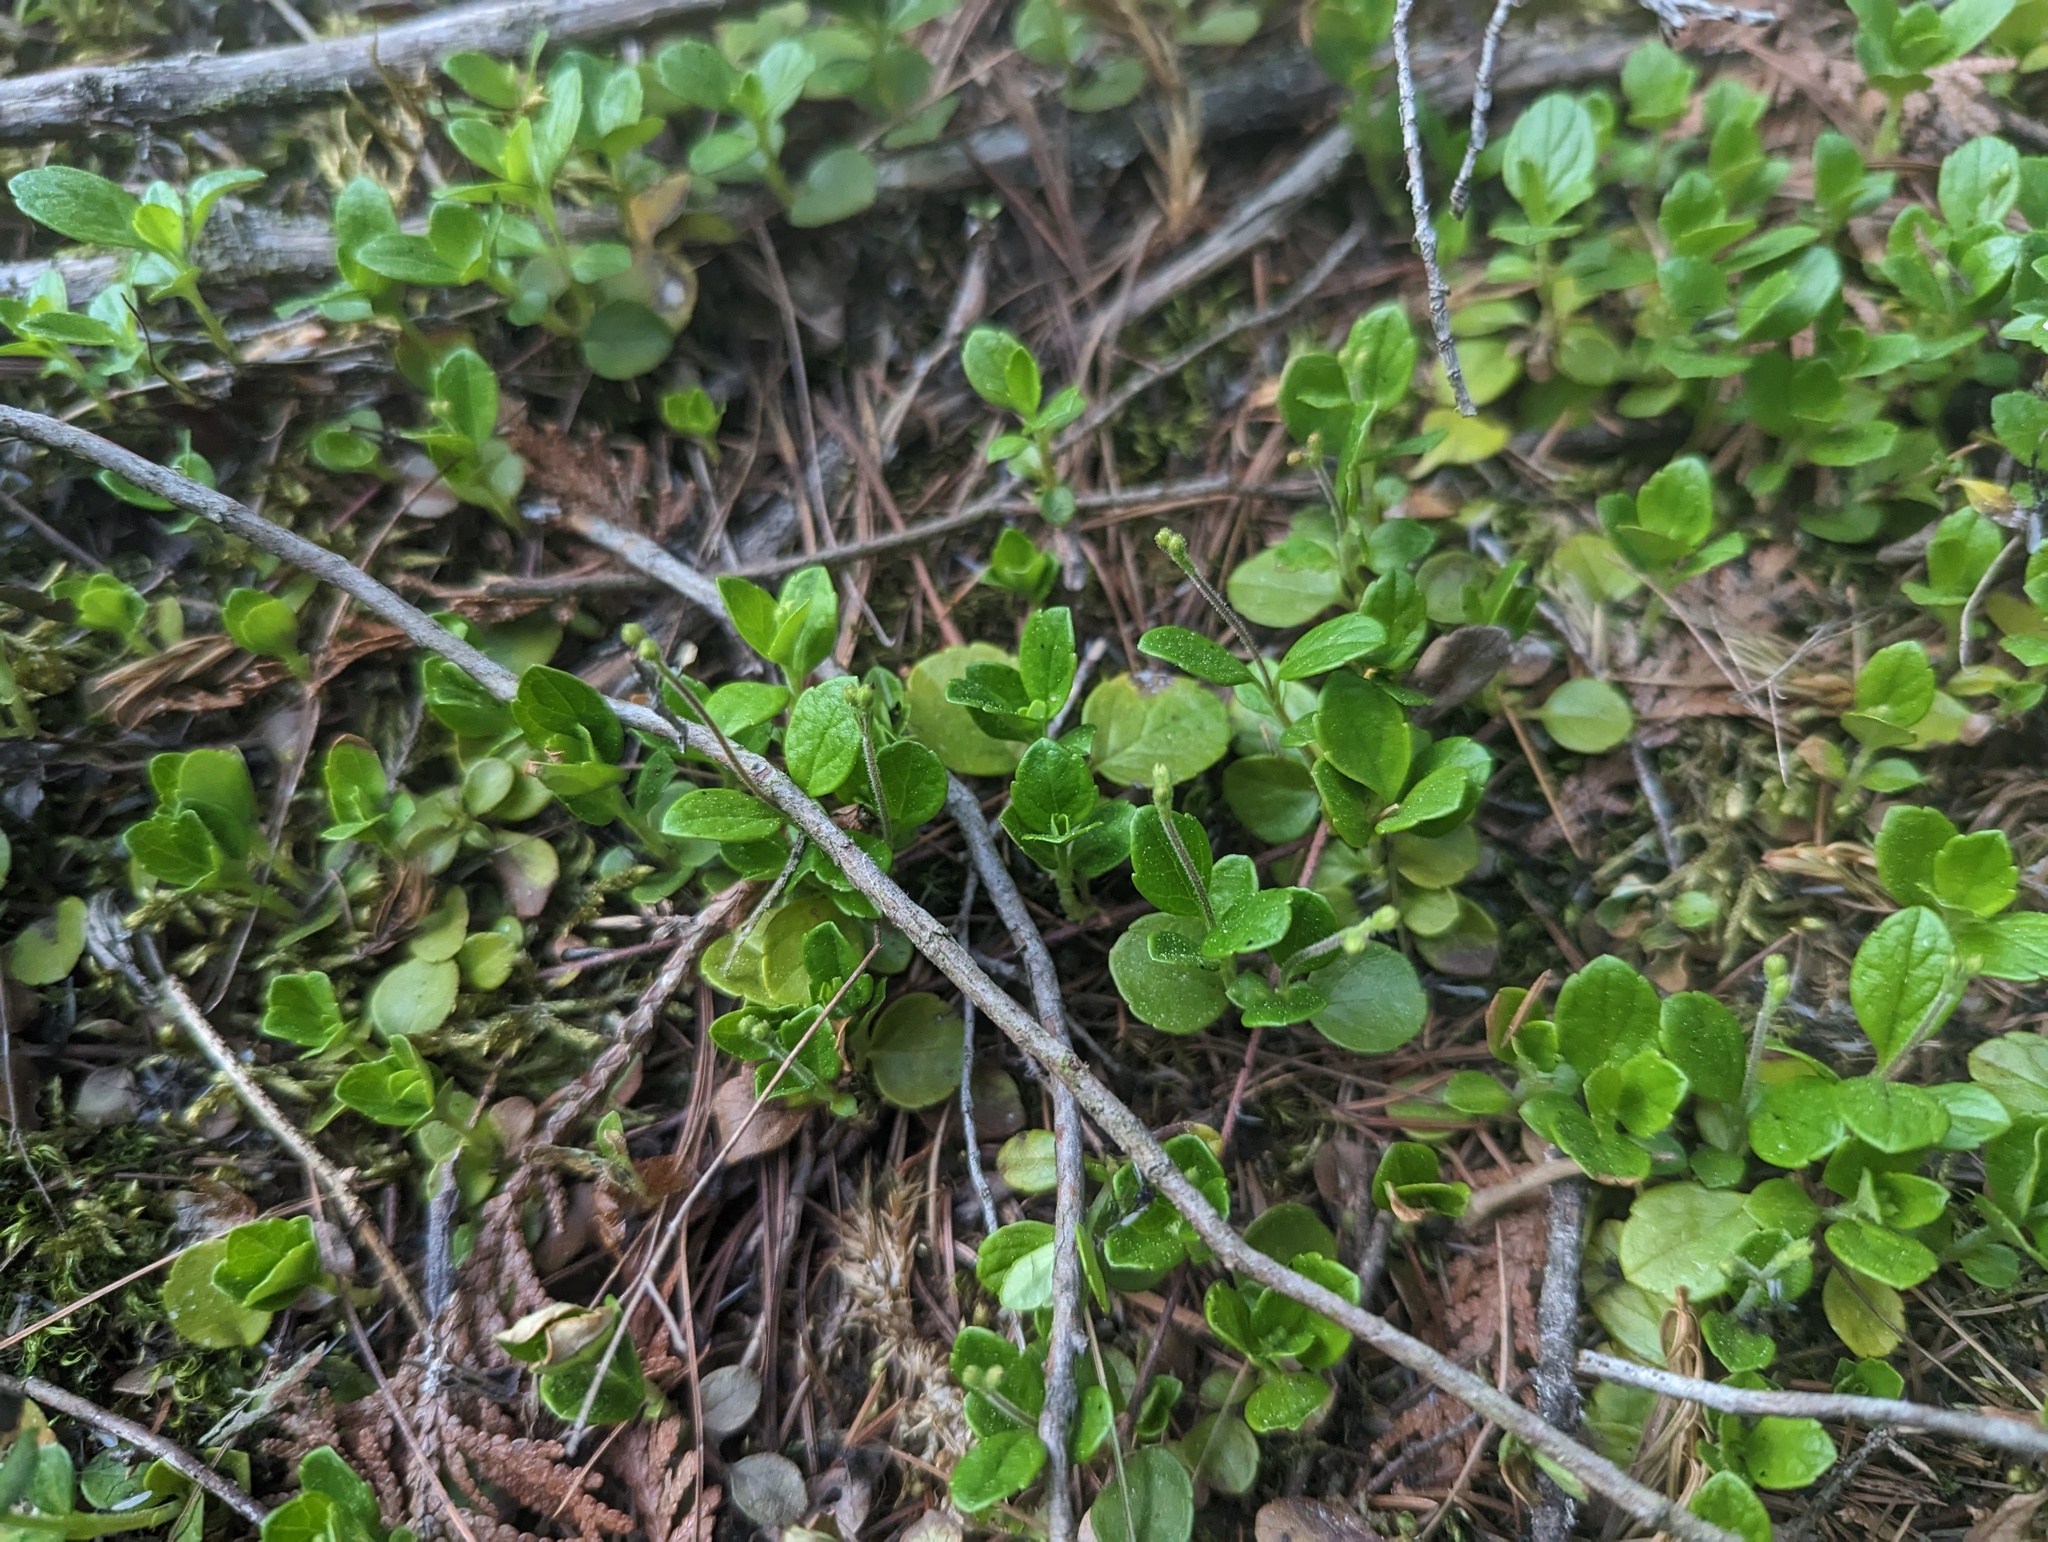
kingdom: Plantae
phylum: Tracheophyta
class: Magnoliopsida
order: Dipsacales
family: Caprifoliaceae
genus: Linnaea
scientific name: Linnaea borealis
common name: Twinflower
